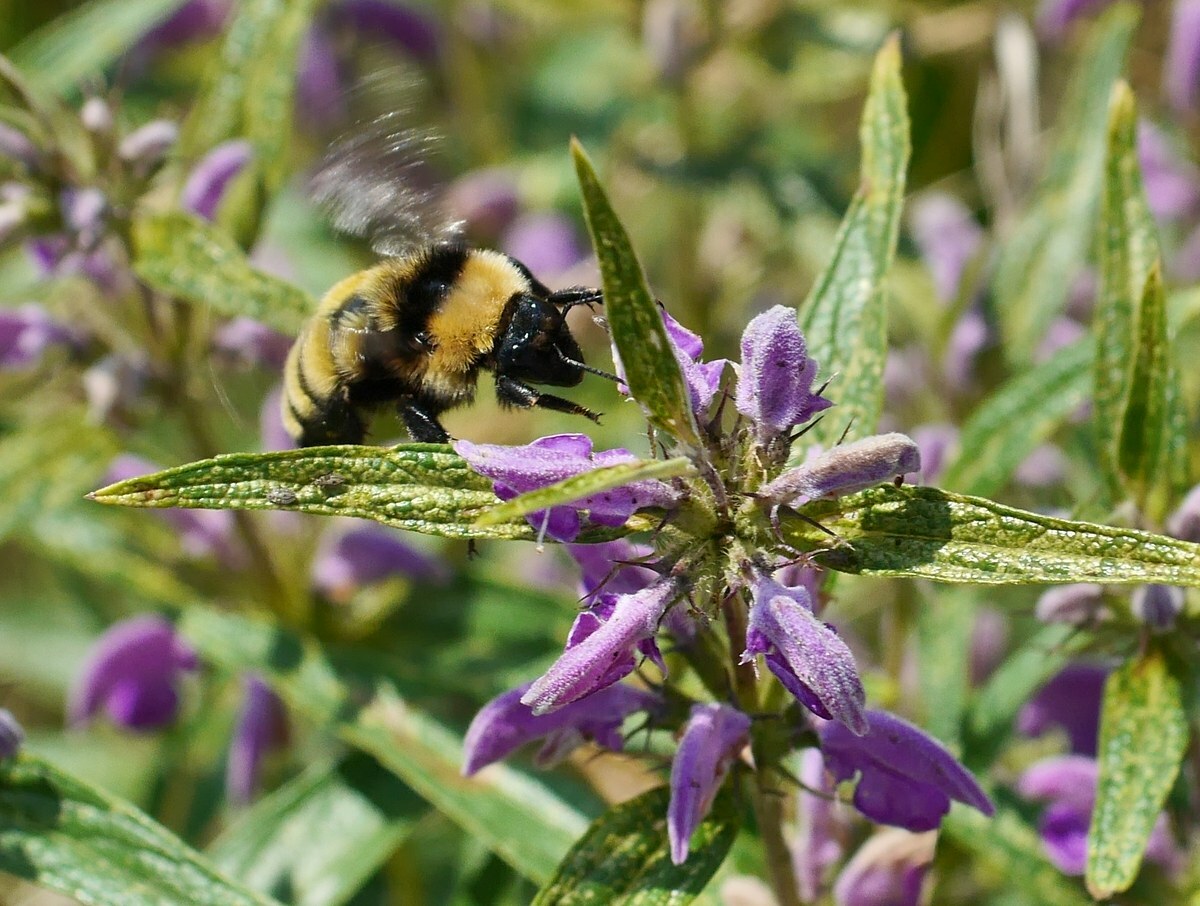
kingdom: Animalia
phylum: Arthropoda
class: Insecta
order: Hymenoptera
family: Apidae
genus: Bombus
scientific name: Bombus zonatus
